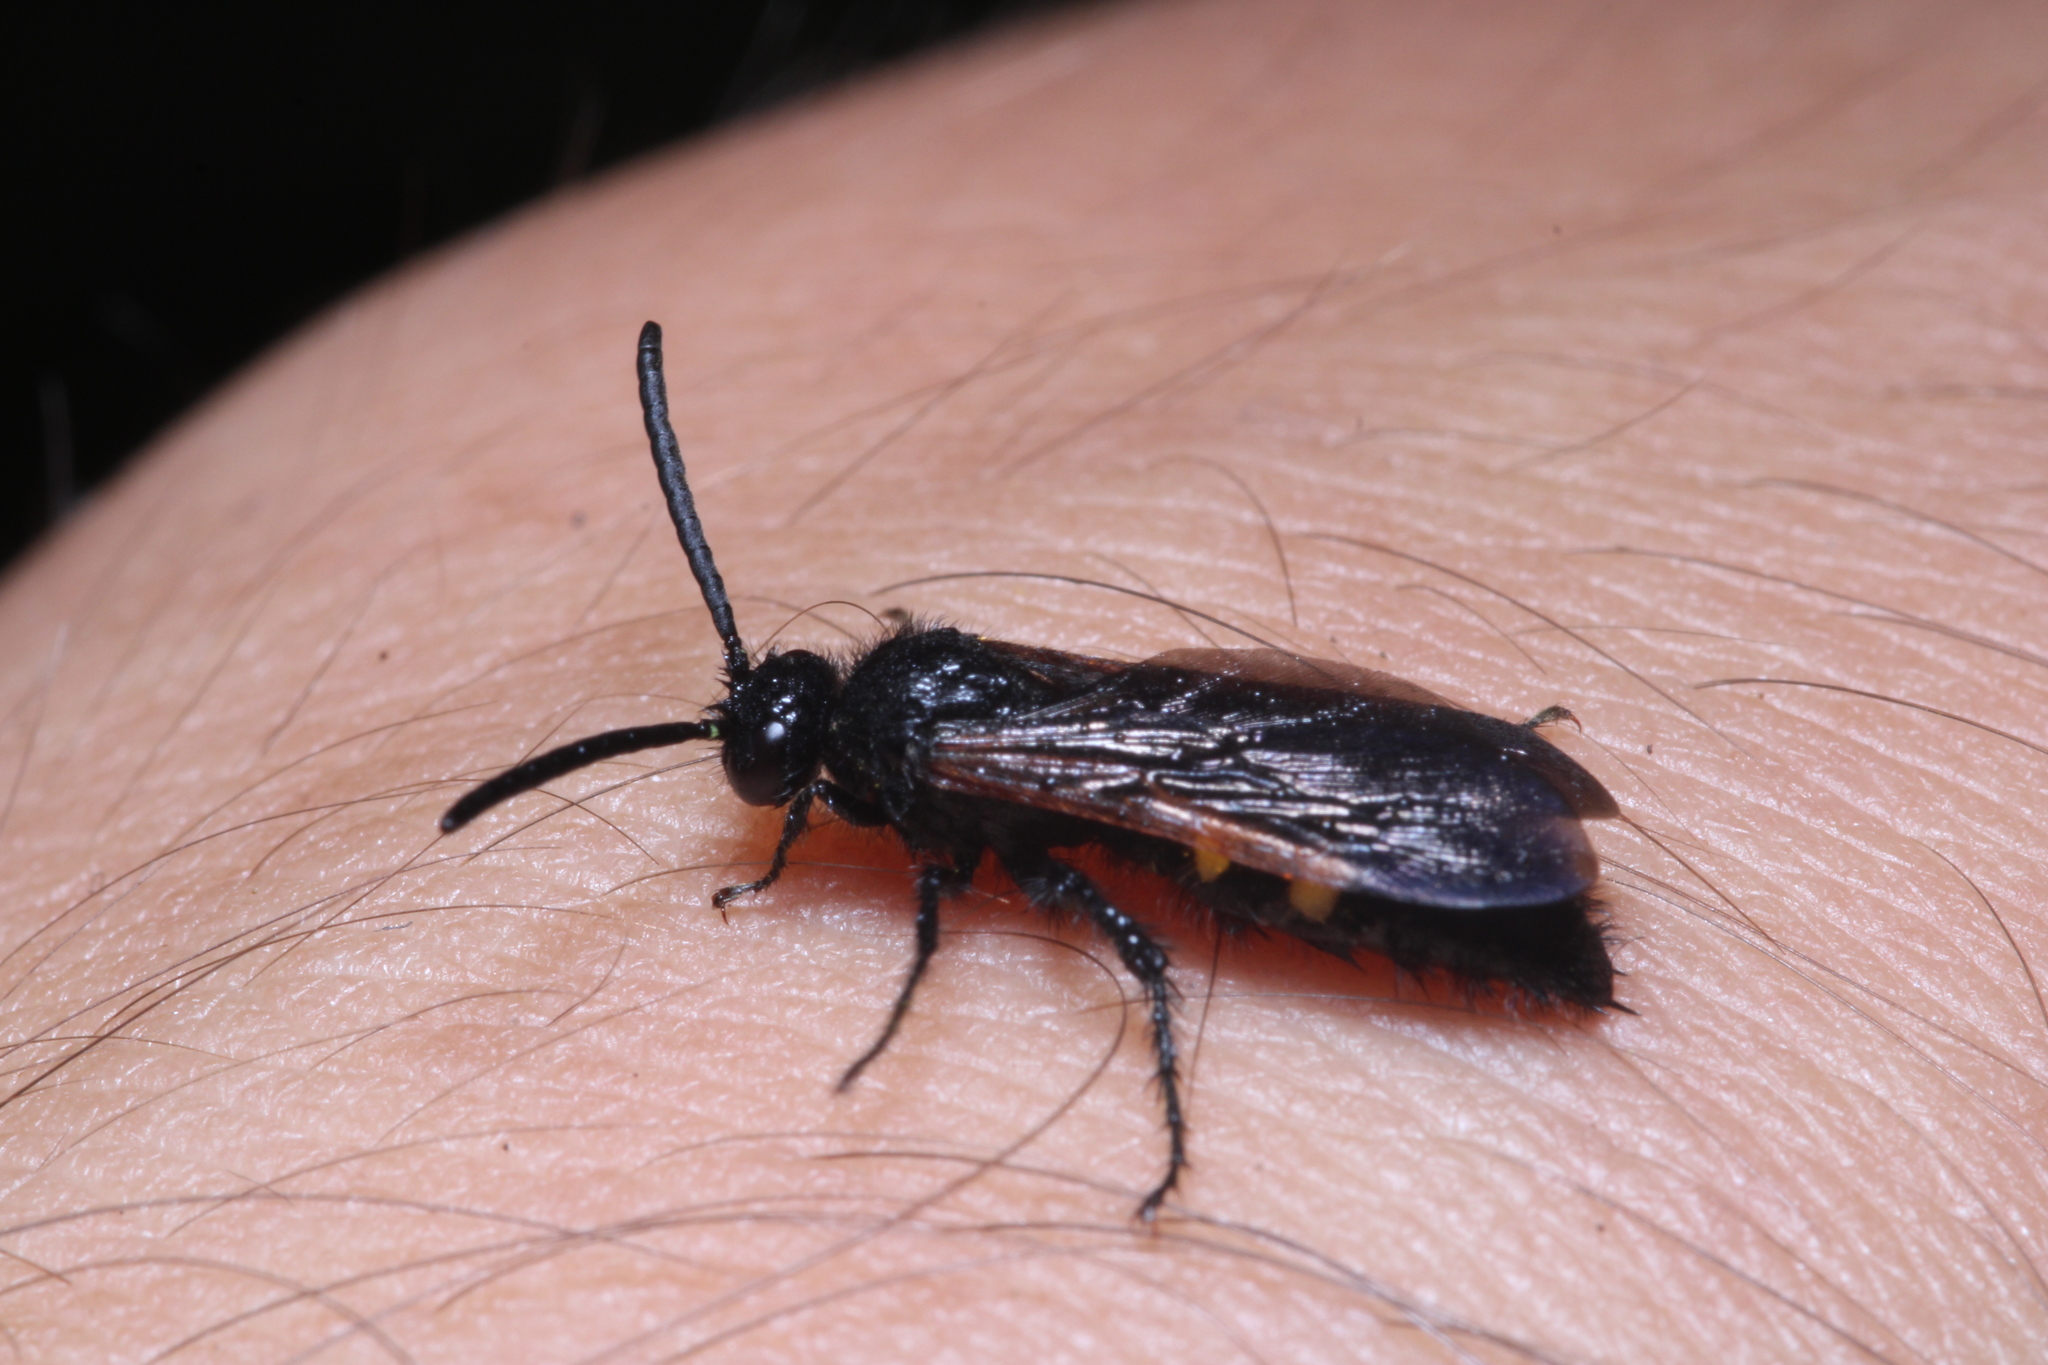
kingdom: Animalia
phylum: Arthropoda
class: Insecta
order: Hymenoptera
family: Vespidae
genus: Vespa
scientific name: Vespa sexmaculata
